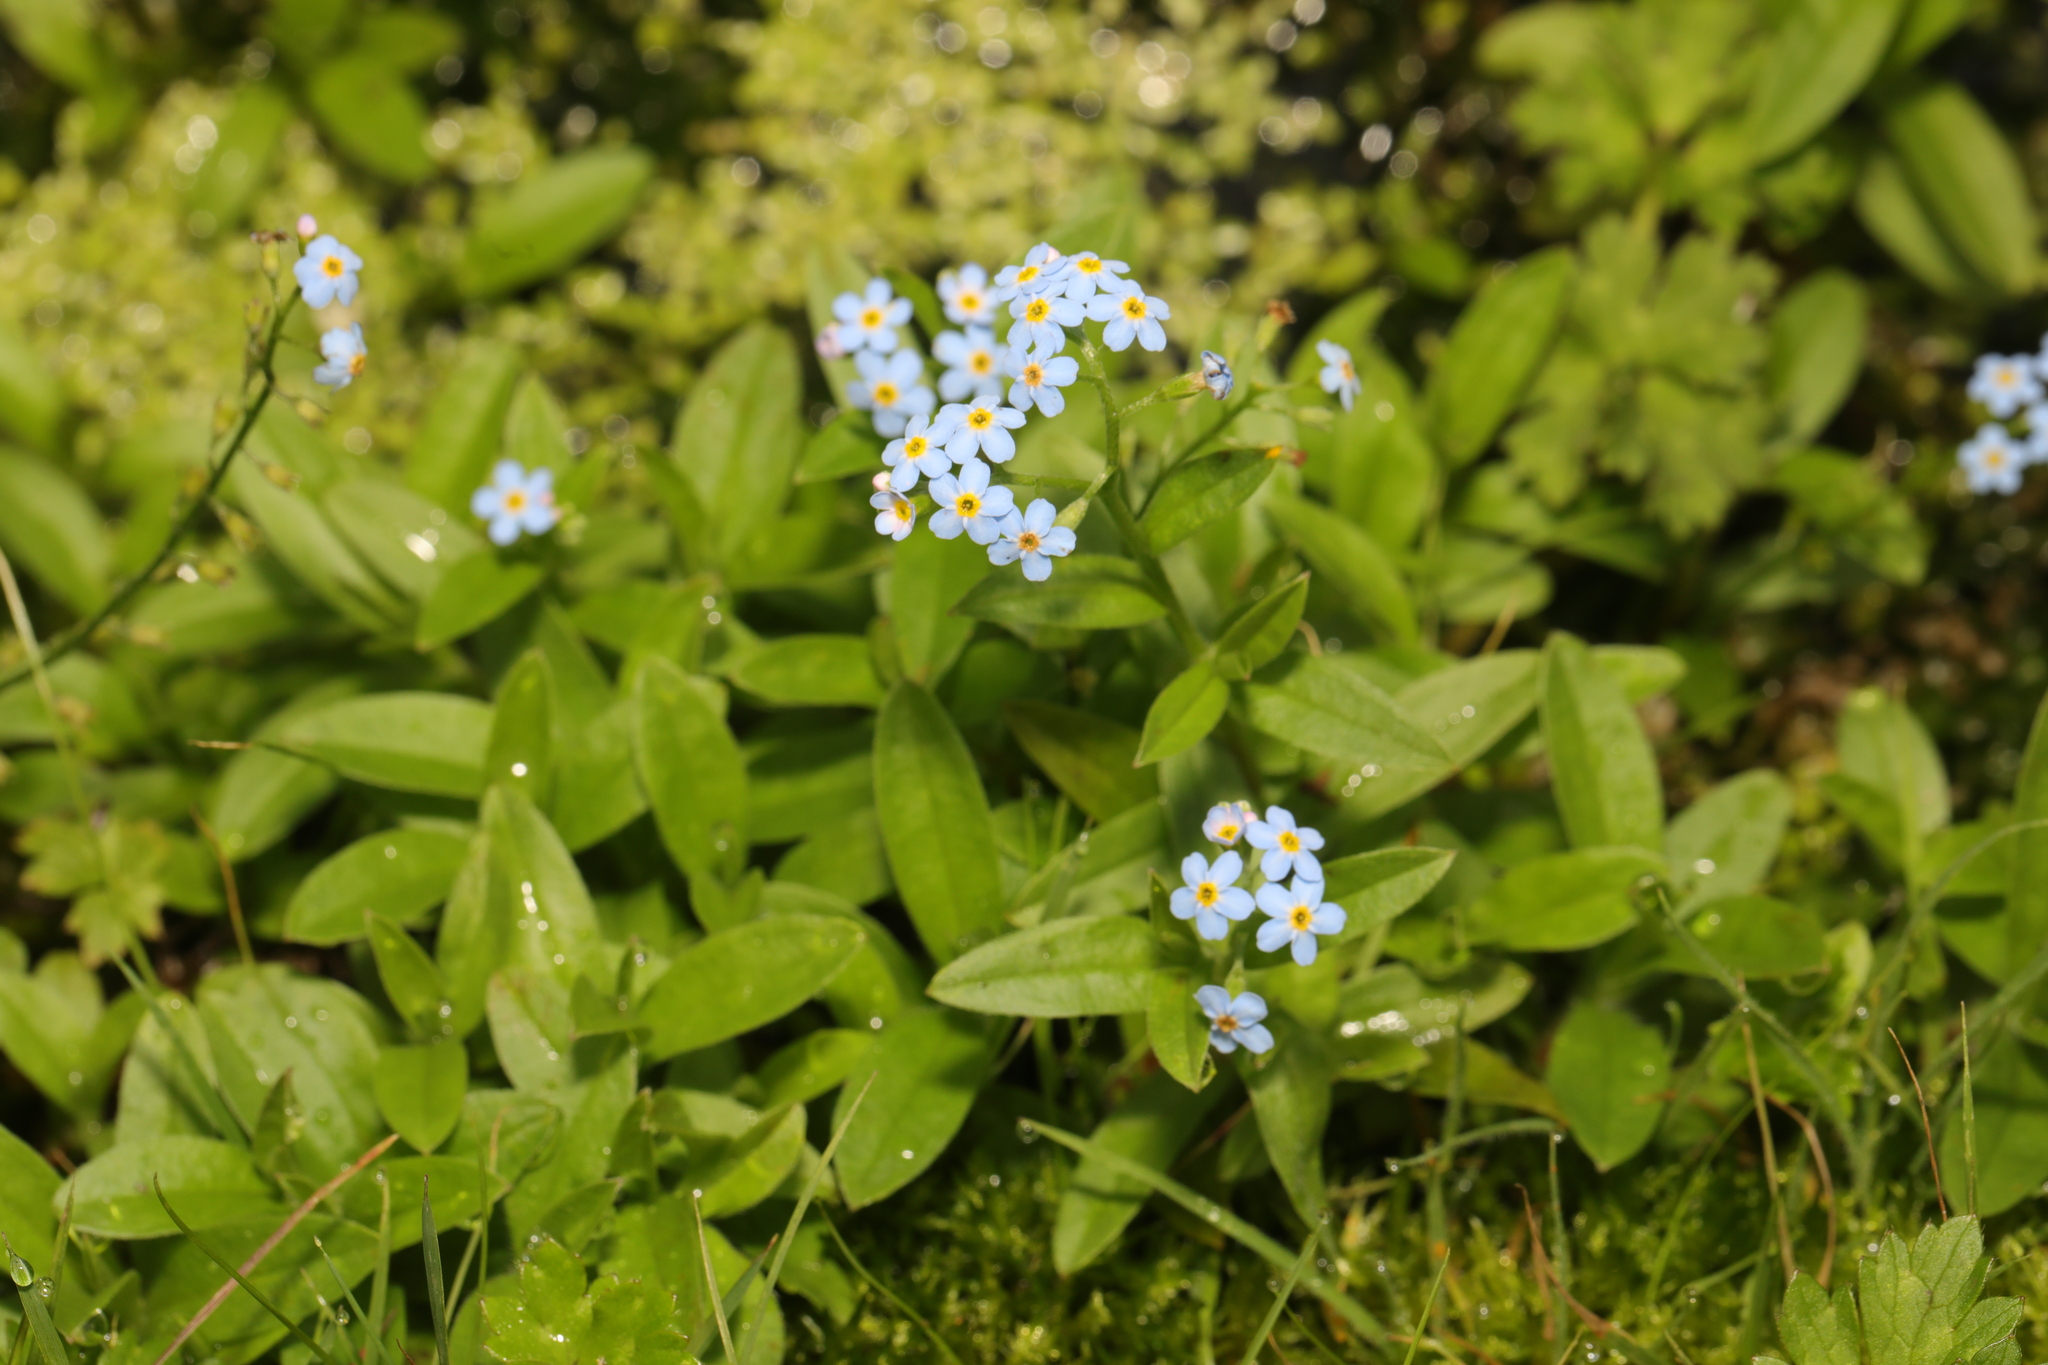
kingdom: Plantae
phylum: Tracheophyta
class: Magnoliopsida
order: Boraginales
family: Boraginaceae
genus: Myosotis
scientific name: Myosotis scorpioides
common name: Water forget-me-not
